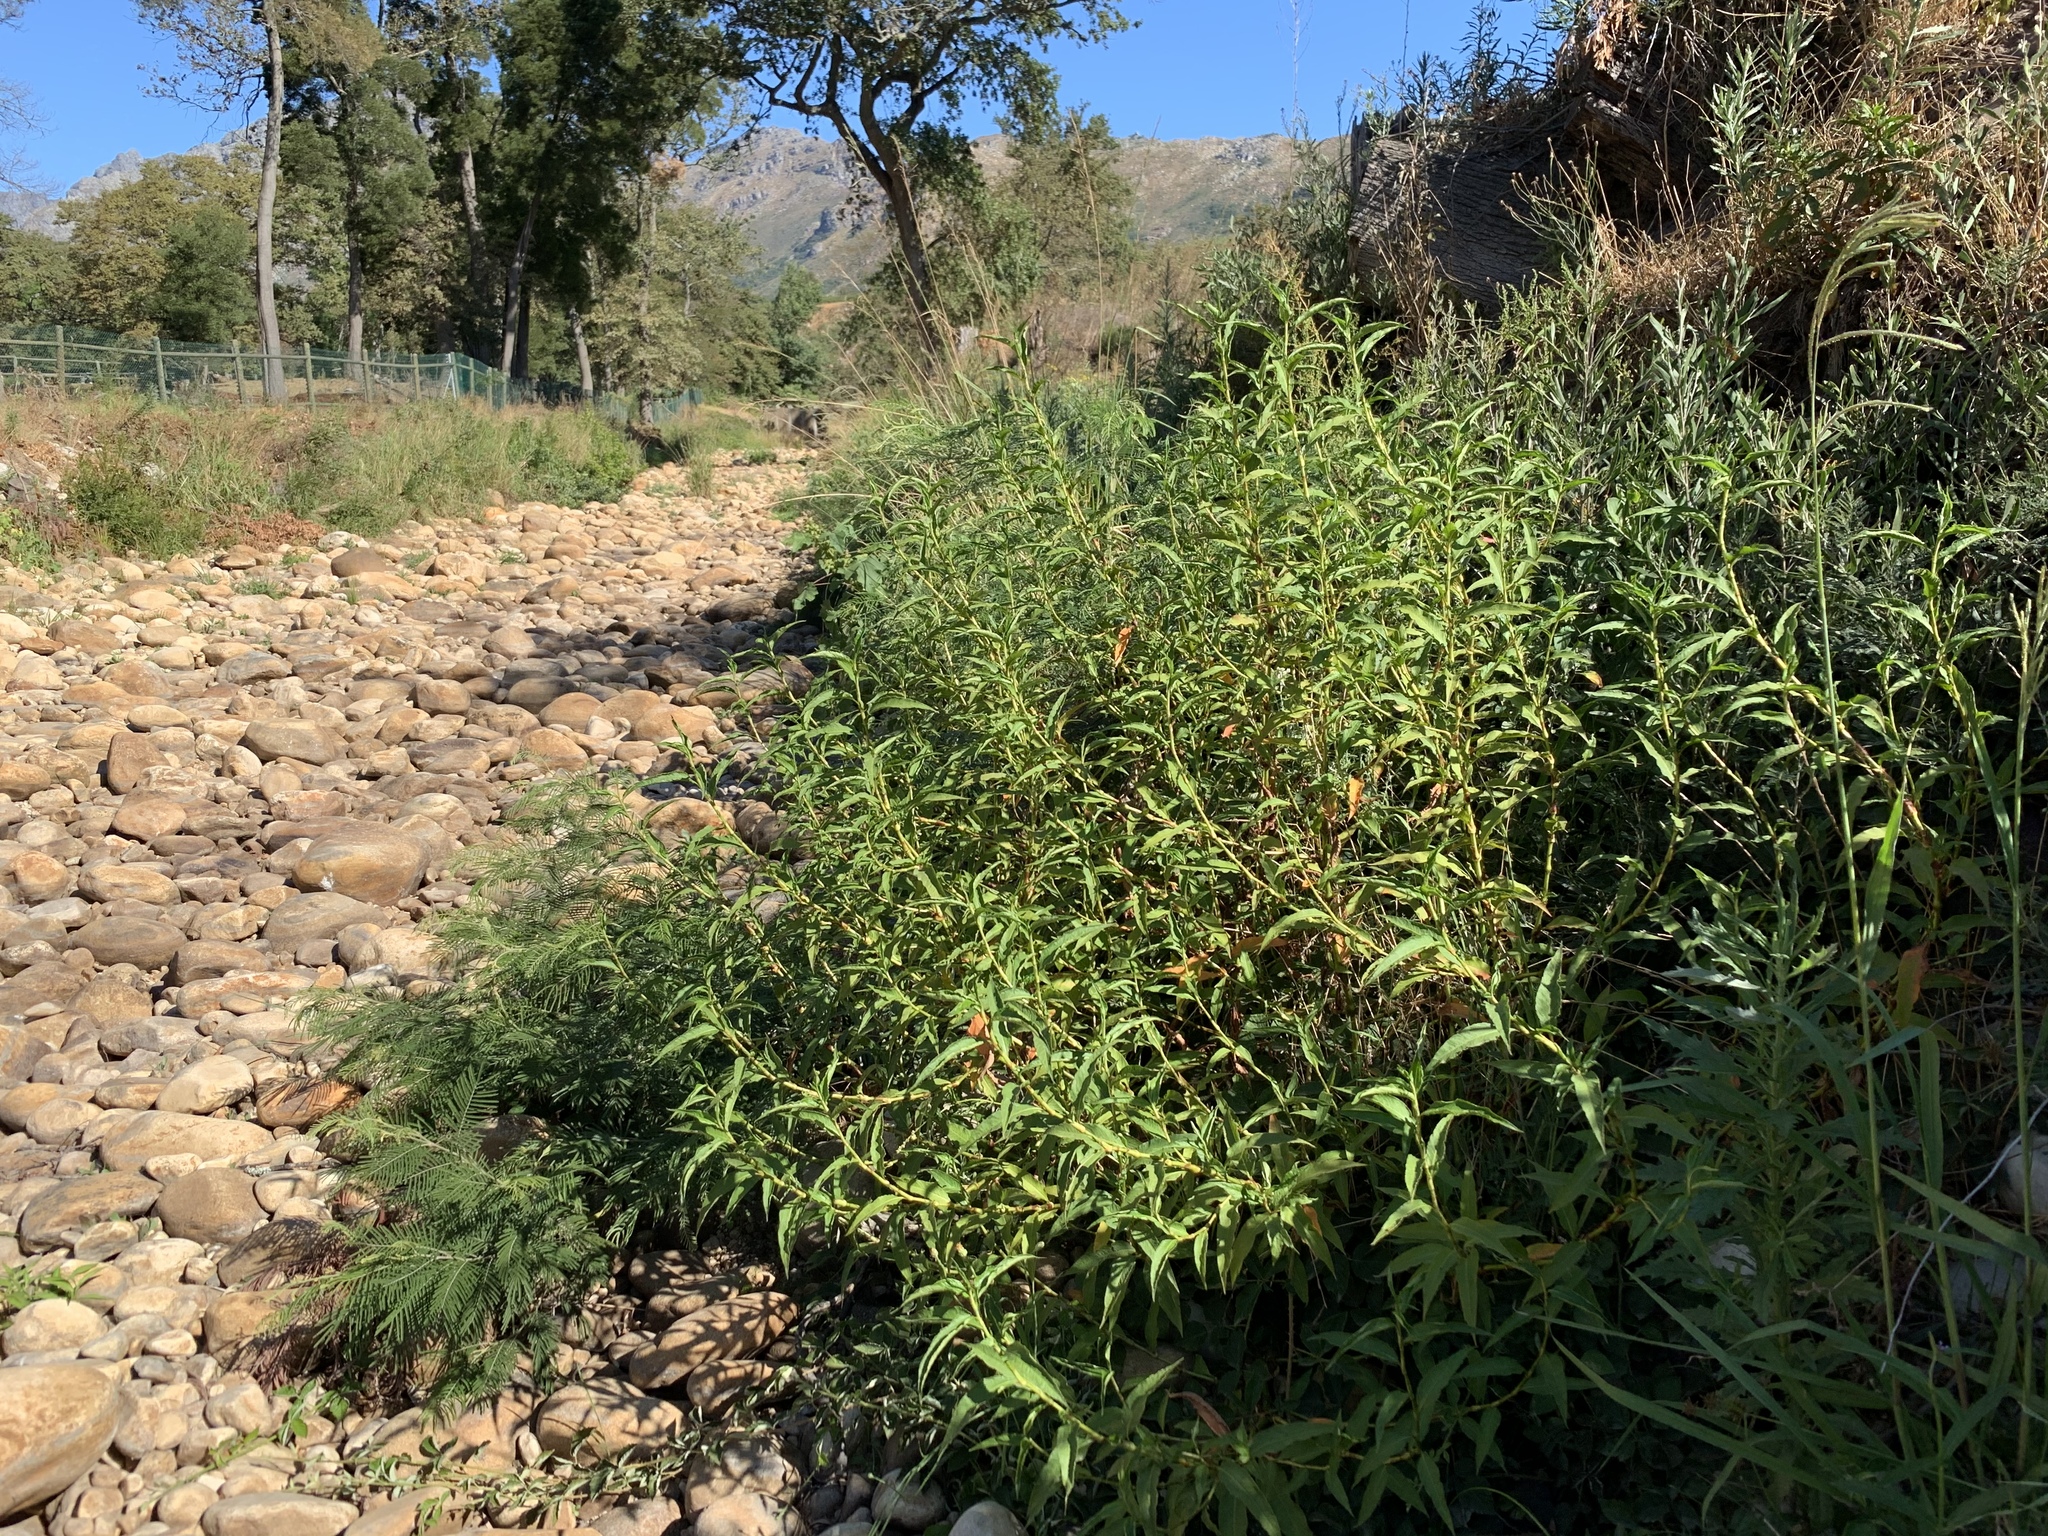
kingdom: Plantae
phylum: Tracheophyta
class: Magnoliopsida
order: Caryophyllales
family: Polygonaceae
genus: Persicaria
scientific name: Persicaria lapathifolia
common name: Curlytop knotweed
